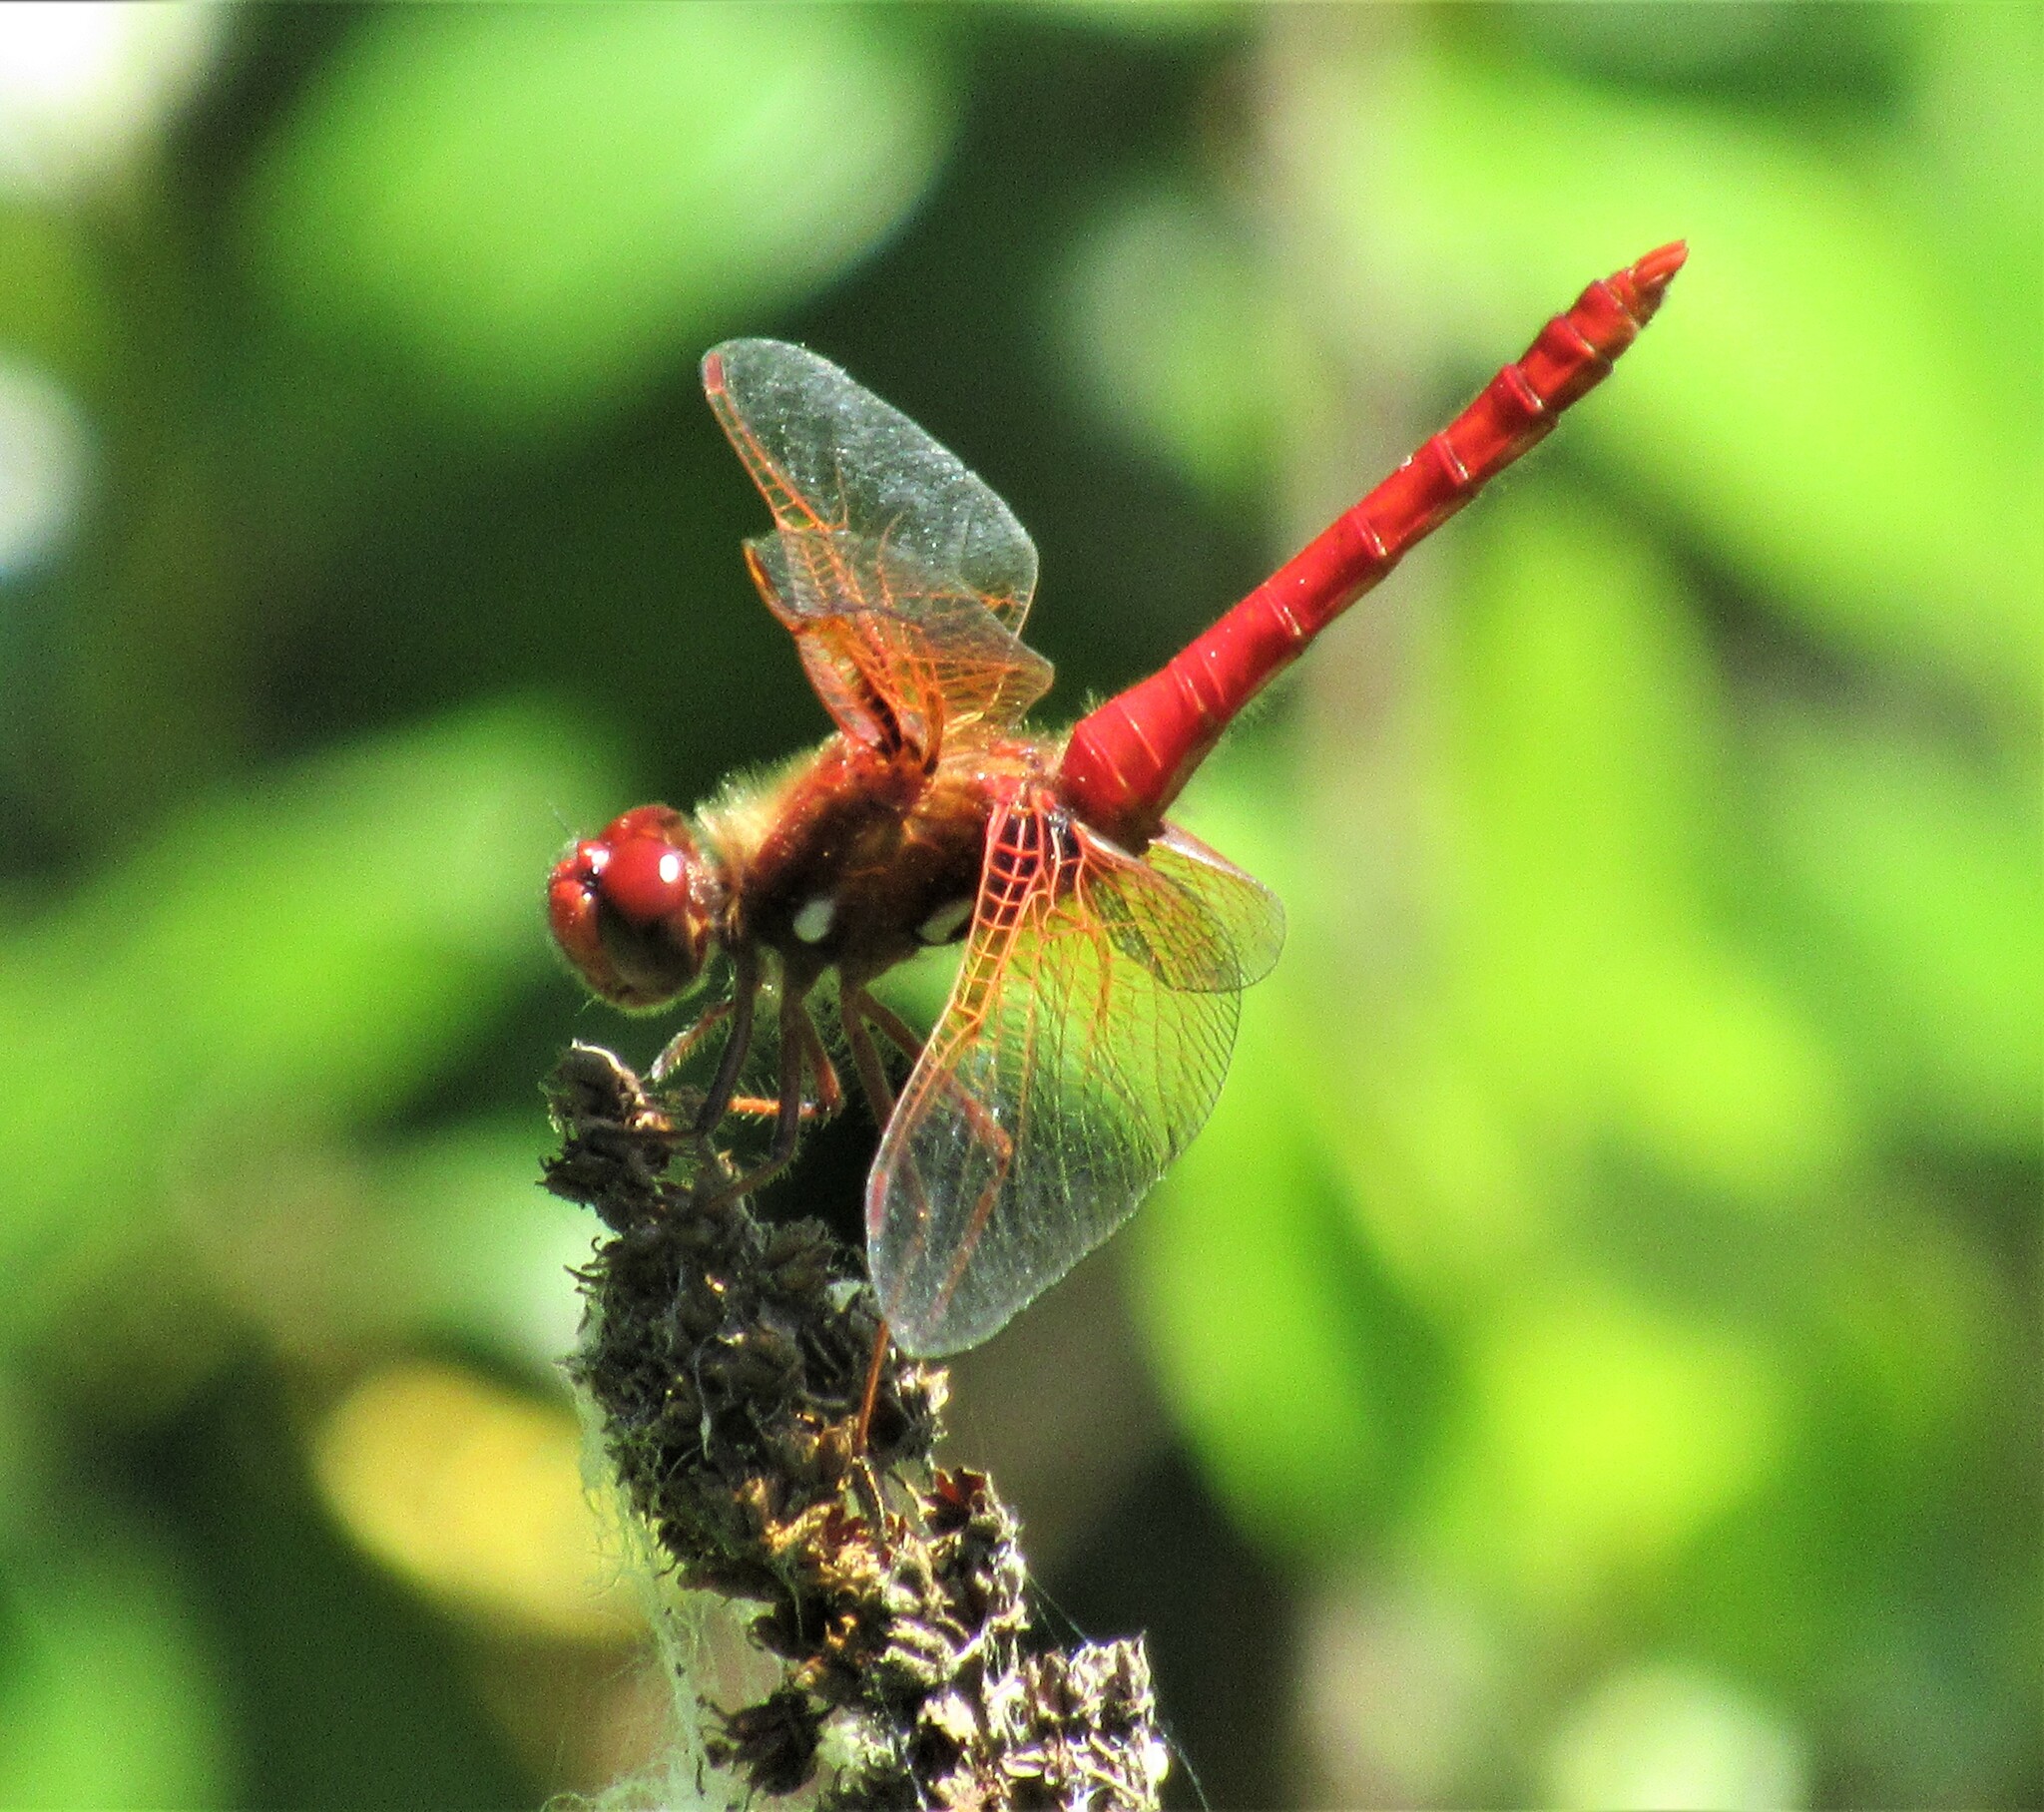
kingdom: Animalia
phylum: Arthropoda
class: Insecta
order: Odonata
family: Libellulidae
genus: Sympetrum
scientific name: Sympetrum illotum
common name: Cardinal meadowhawk
